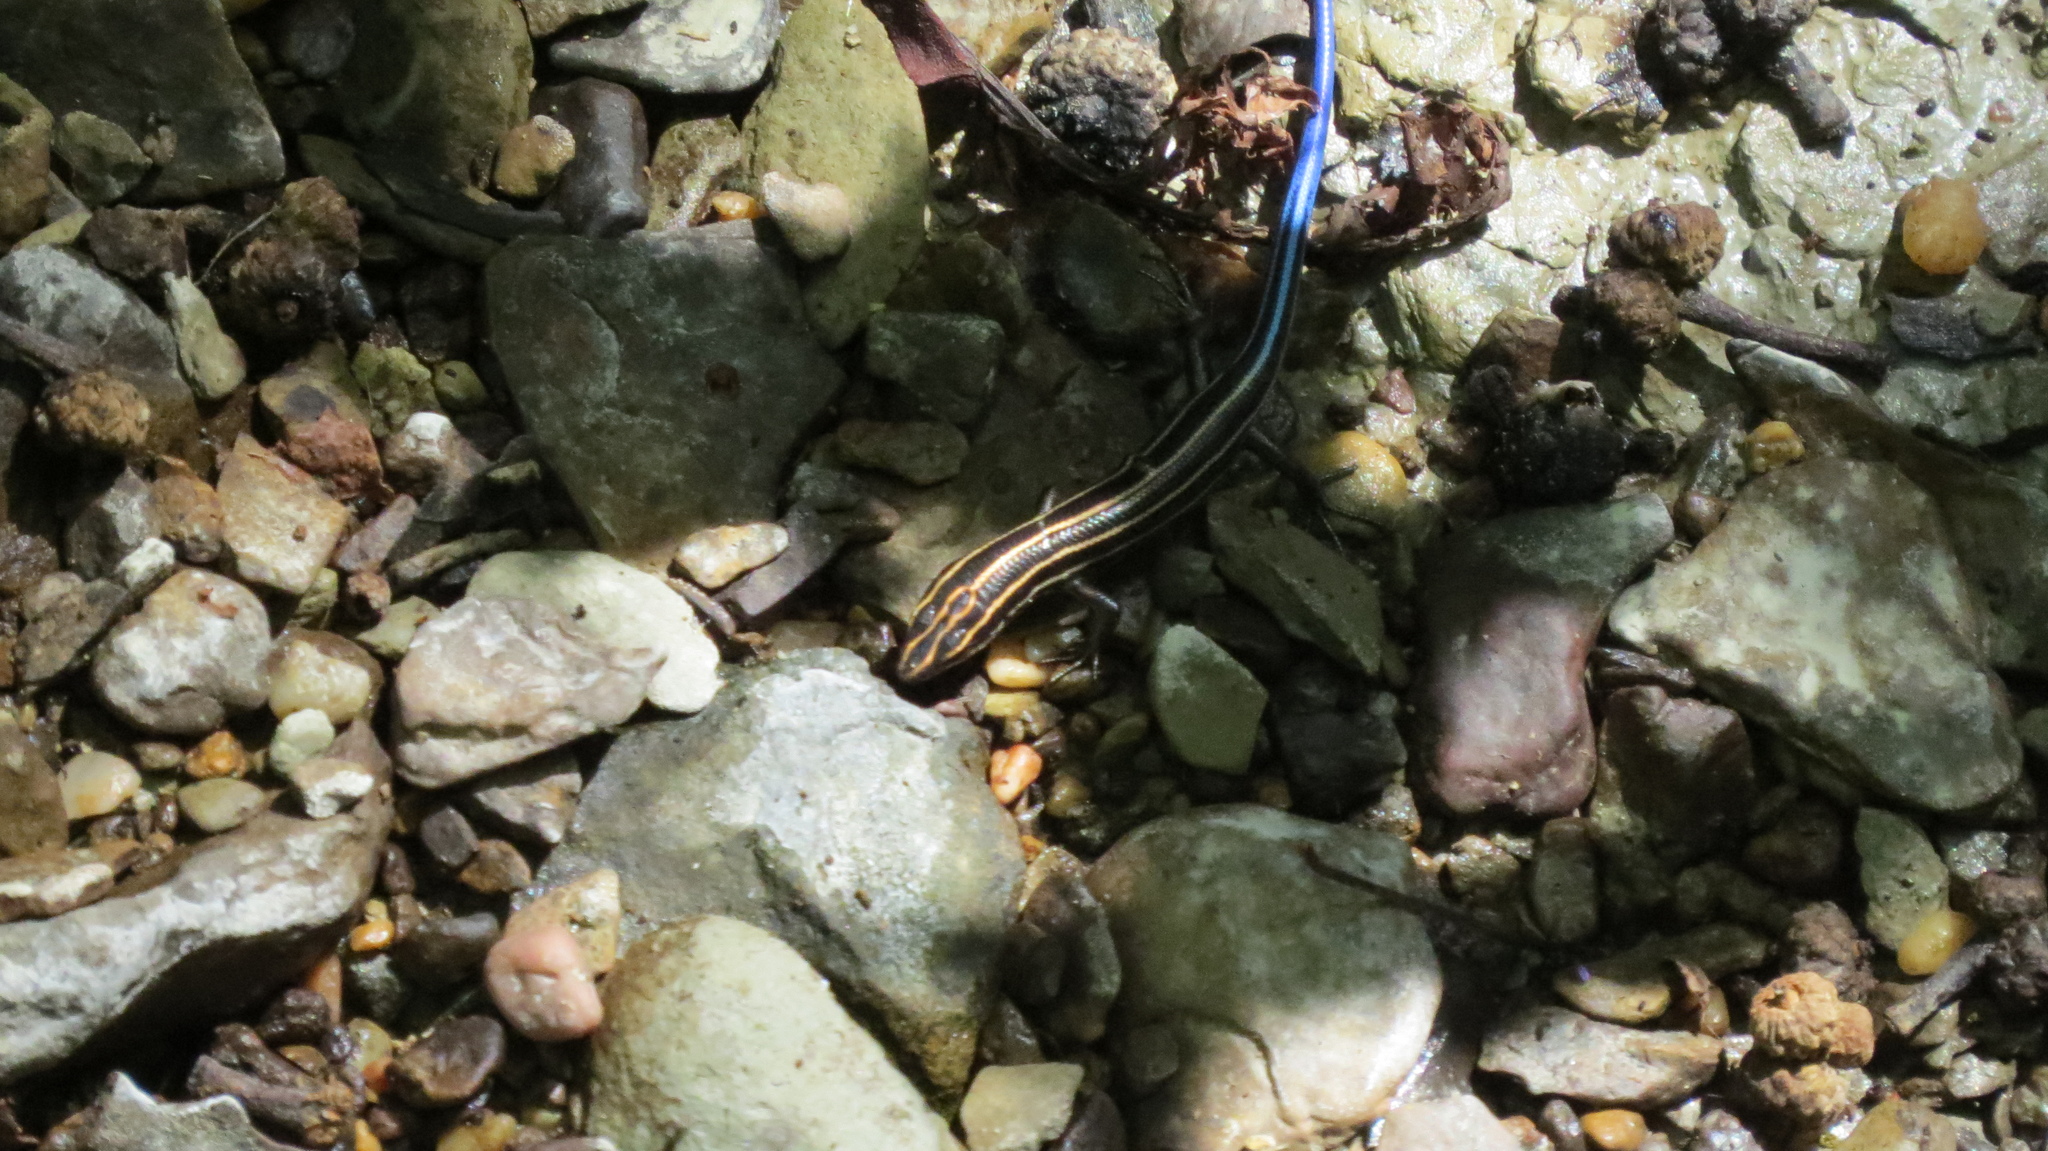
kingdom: Animalia
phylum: Chordata
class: Squamata
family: Scincidae
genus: Plestiodon
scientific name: Plestiodon fasciatus
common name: Five-lined skink
